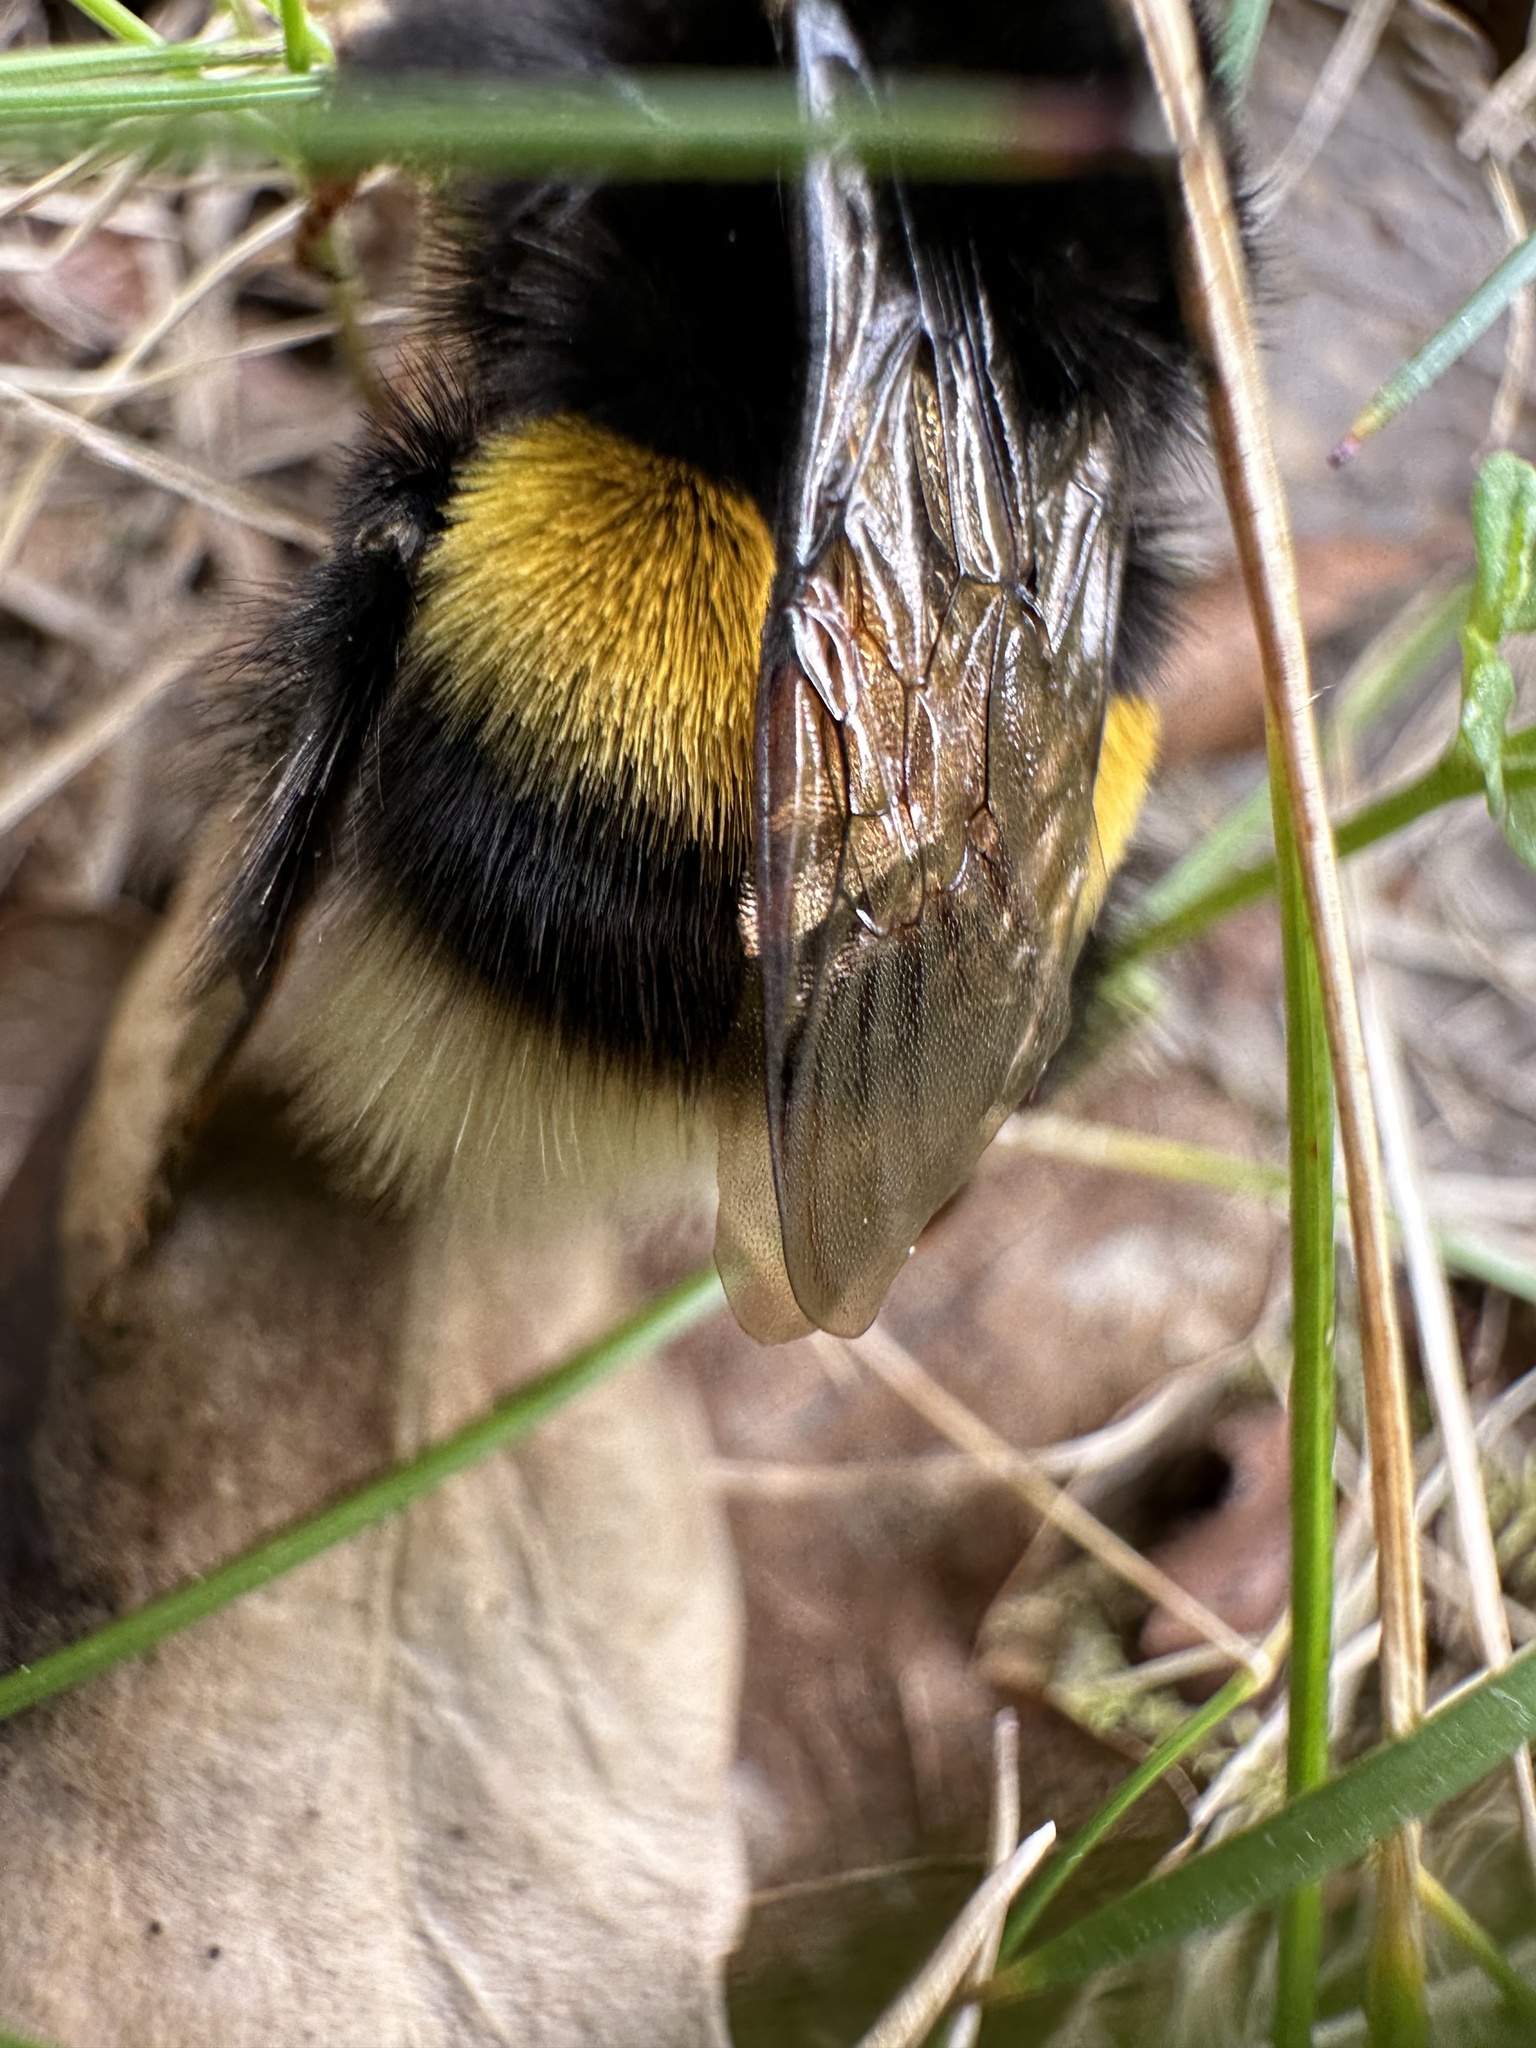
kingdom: Animalia
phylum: Arthropoda
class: Insecta
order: Hymenoptera
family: Apidae
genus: Bombus
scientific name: Bombus terrestris
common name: Buff-tailed bumblebee
